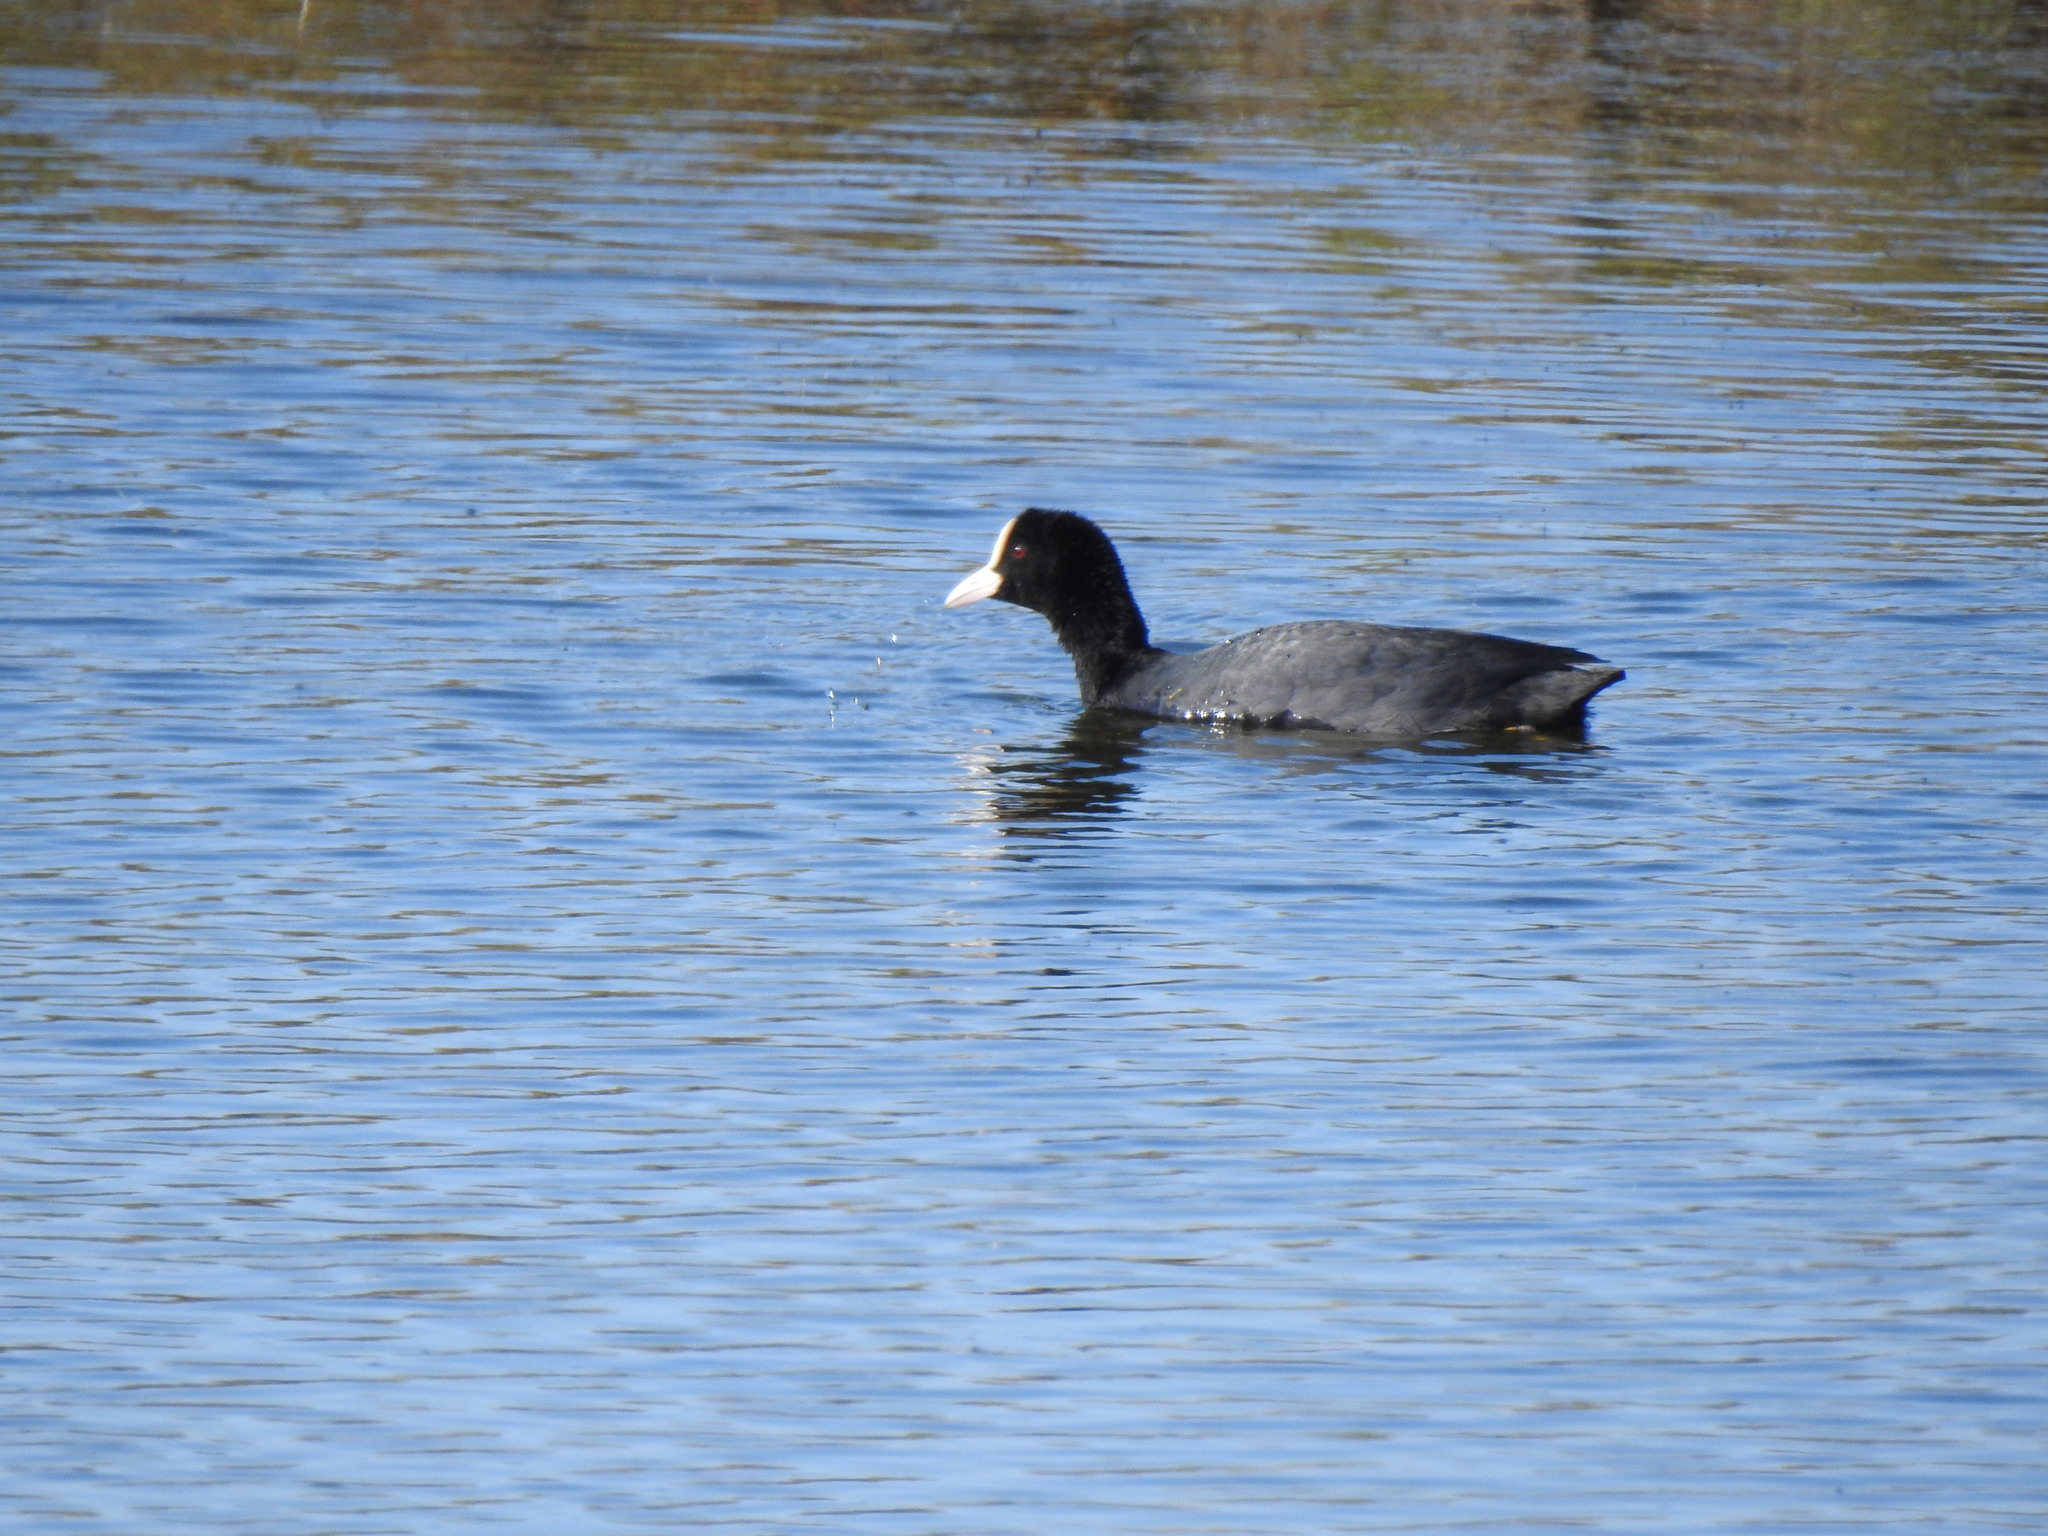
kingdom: Animalia
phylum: Chordata
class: Aves
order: Gruiformes
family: Rallidae
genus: Fulica
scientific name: Fulica atra
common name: Eurasian coot
